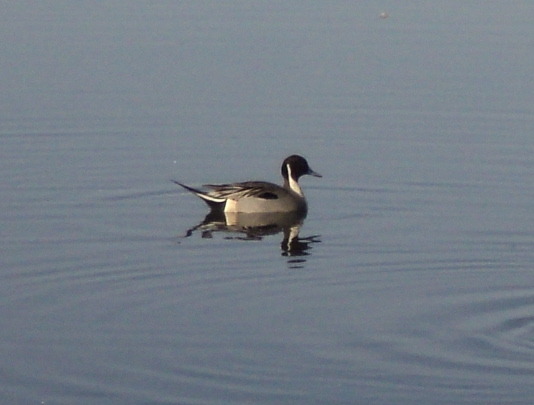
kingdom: Animalia
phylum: Chordata
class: Aves
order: Anseriformes
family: Anatidae
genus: Anas
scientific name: Anas acuta
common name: Northern pintail
